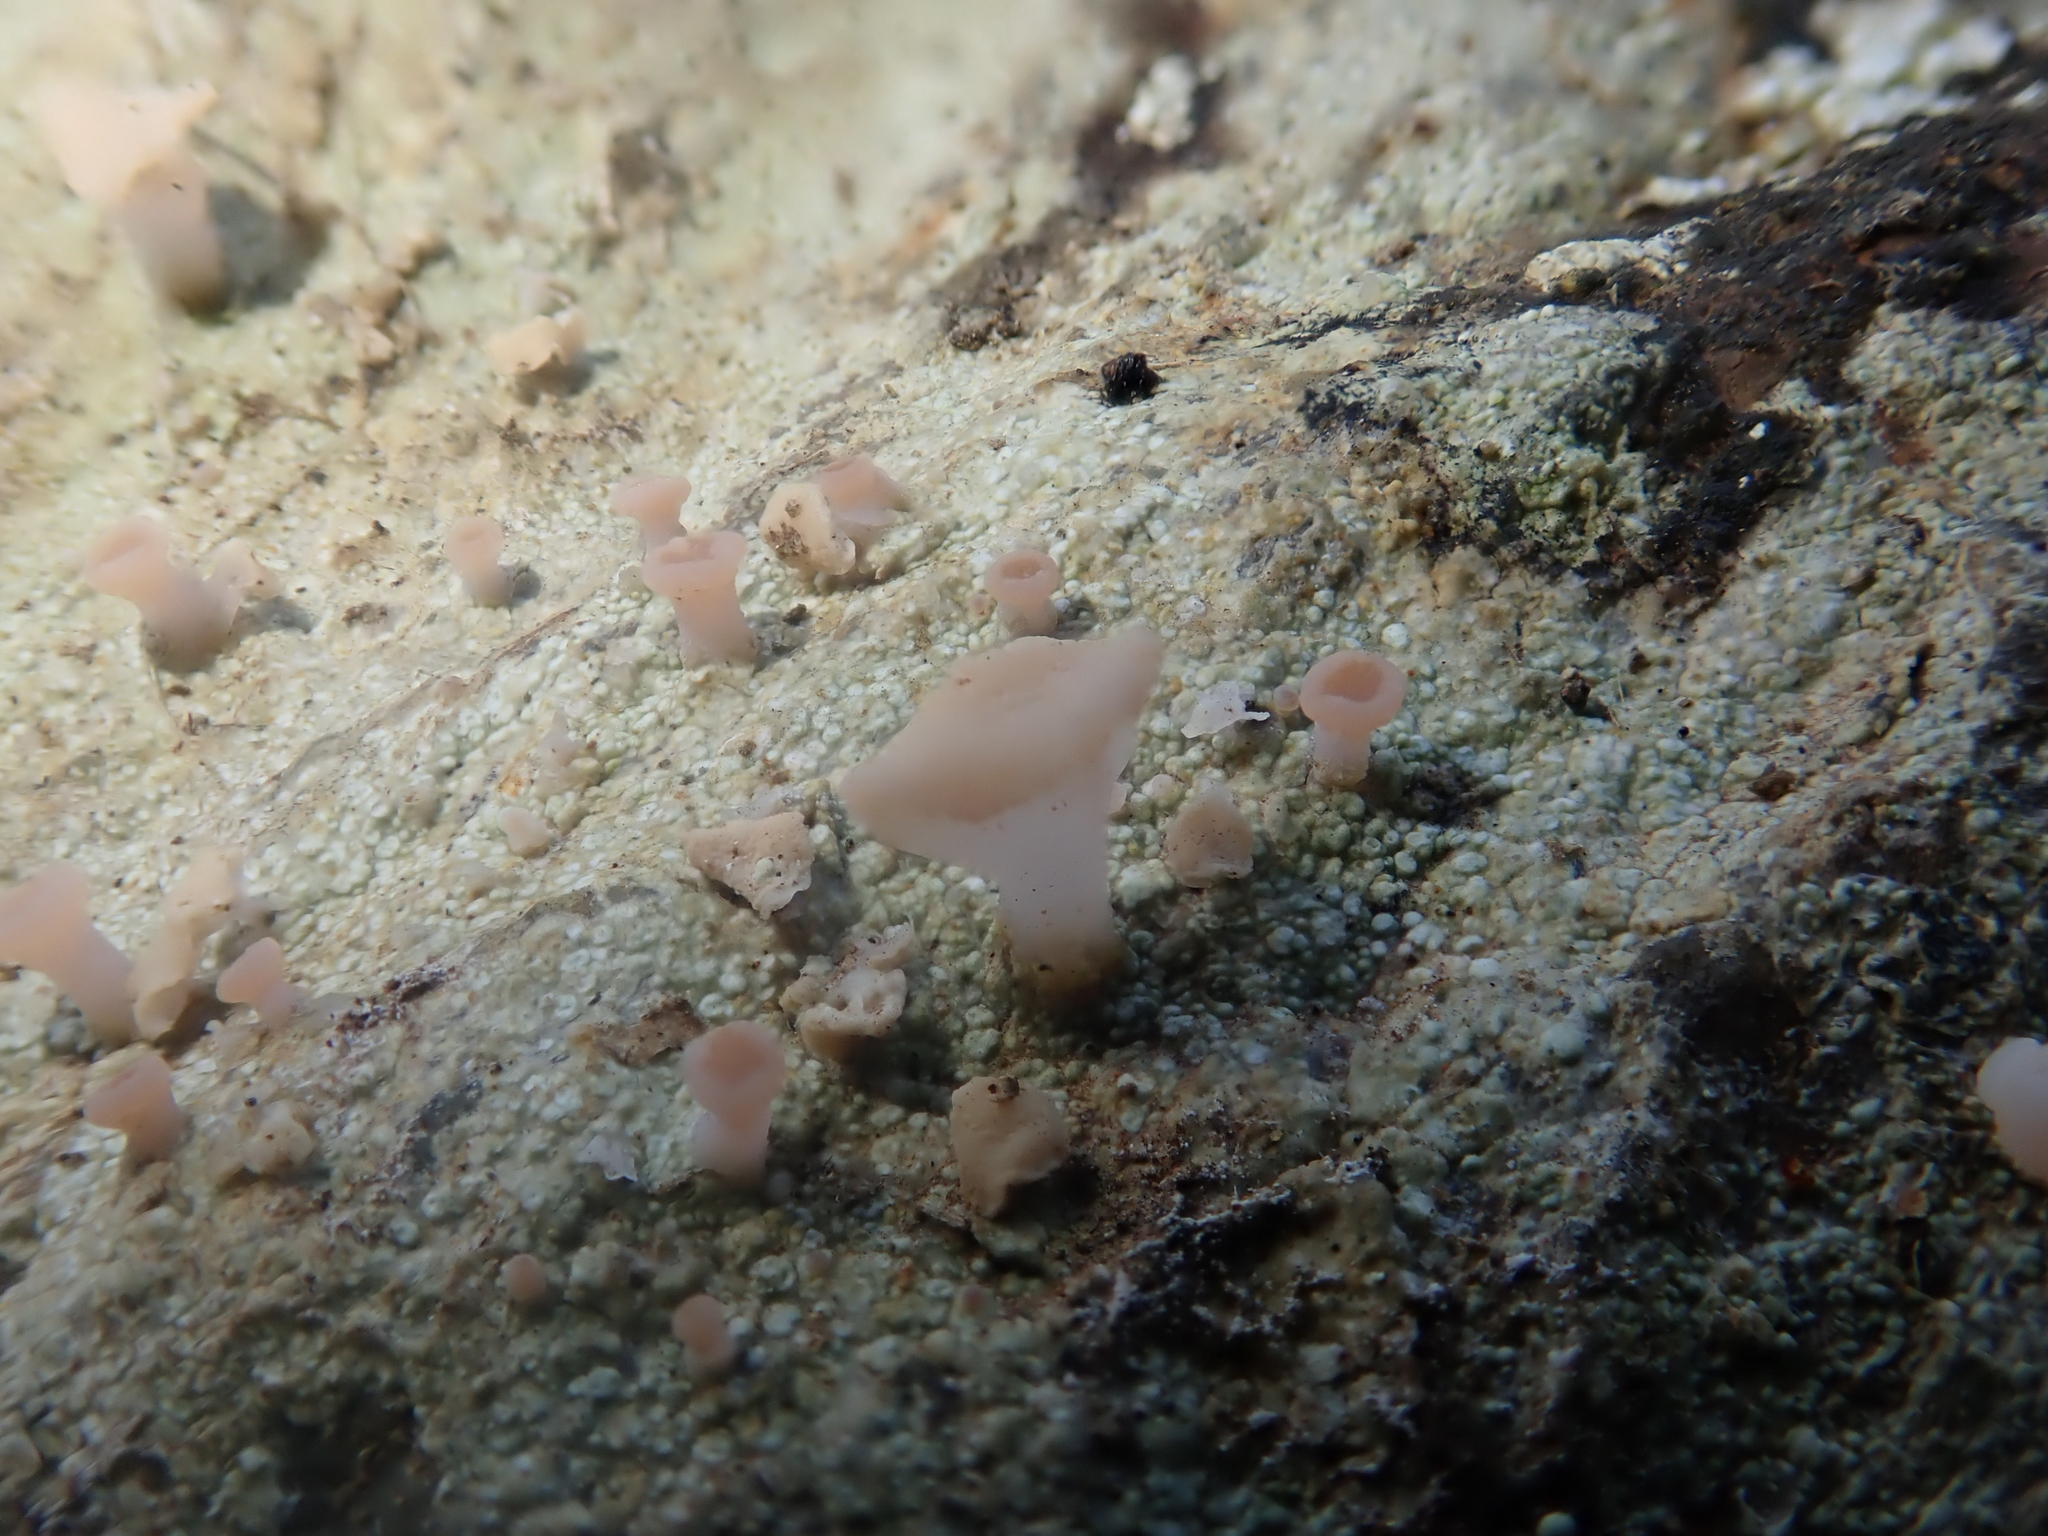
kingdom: Fungi
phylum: Ascomycota
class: Lecanoromycetes
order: Baeomycetales
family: Baeomycetaceae
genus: Baeomyces
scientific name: Baeomyces heteromorphus
